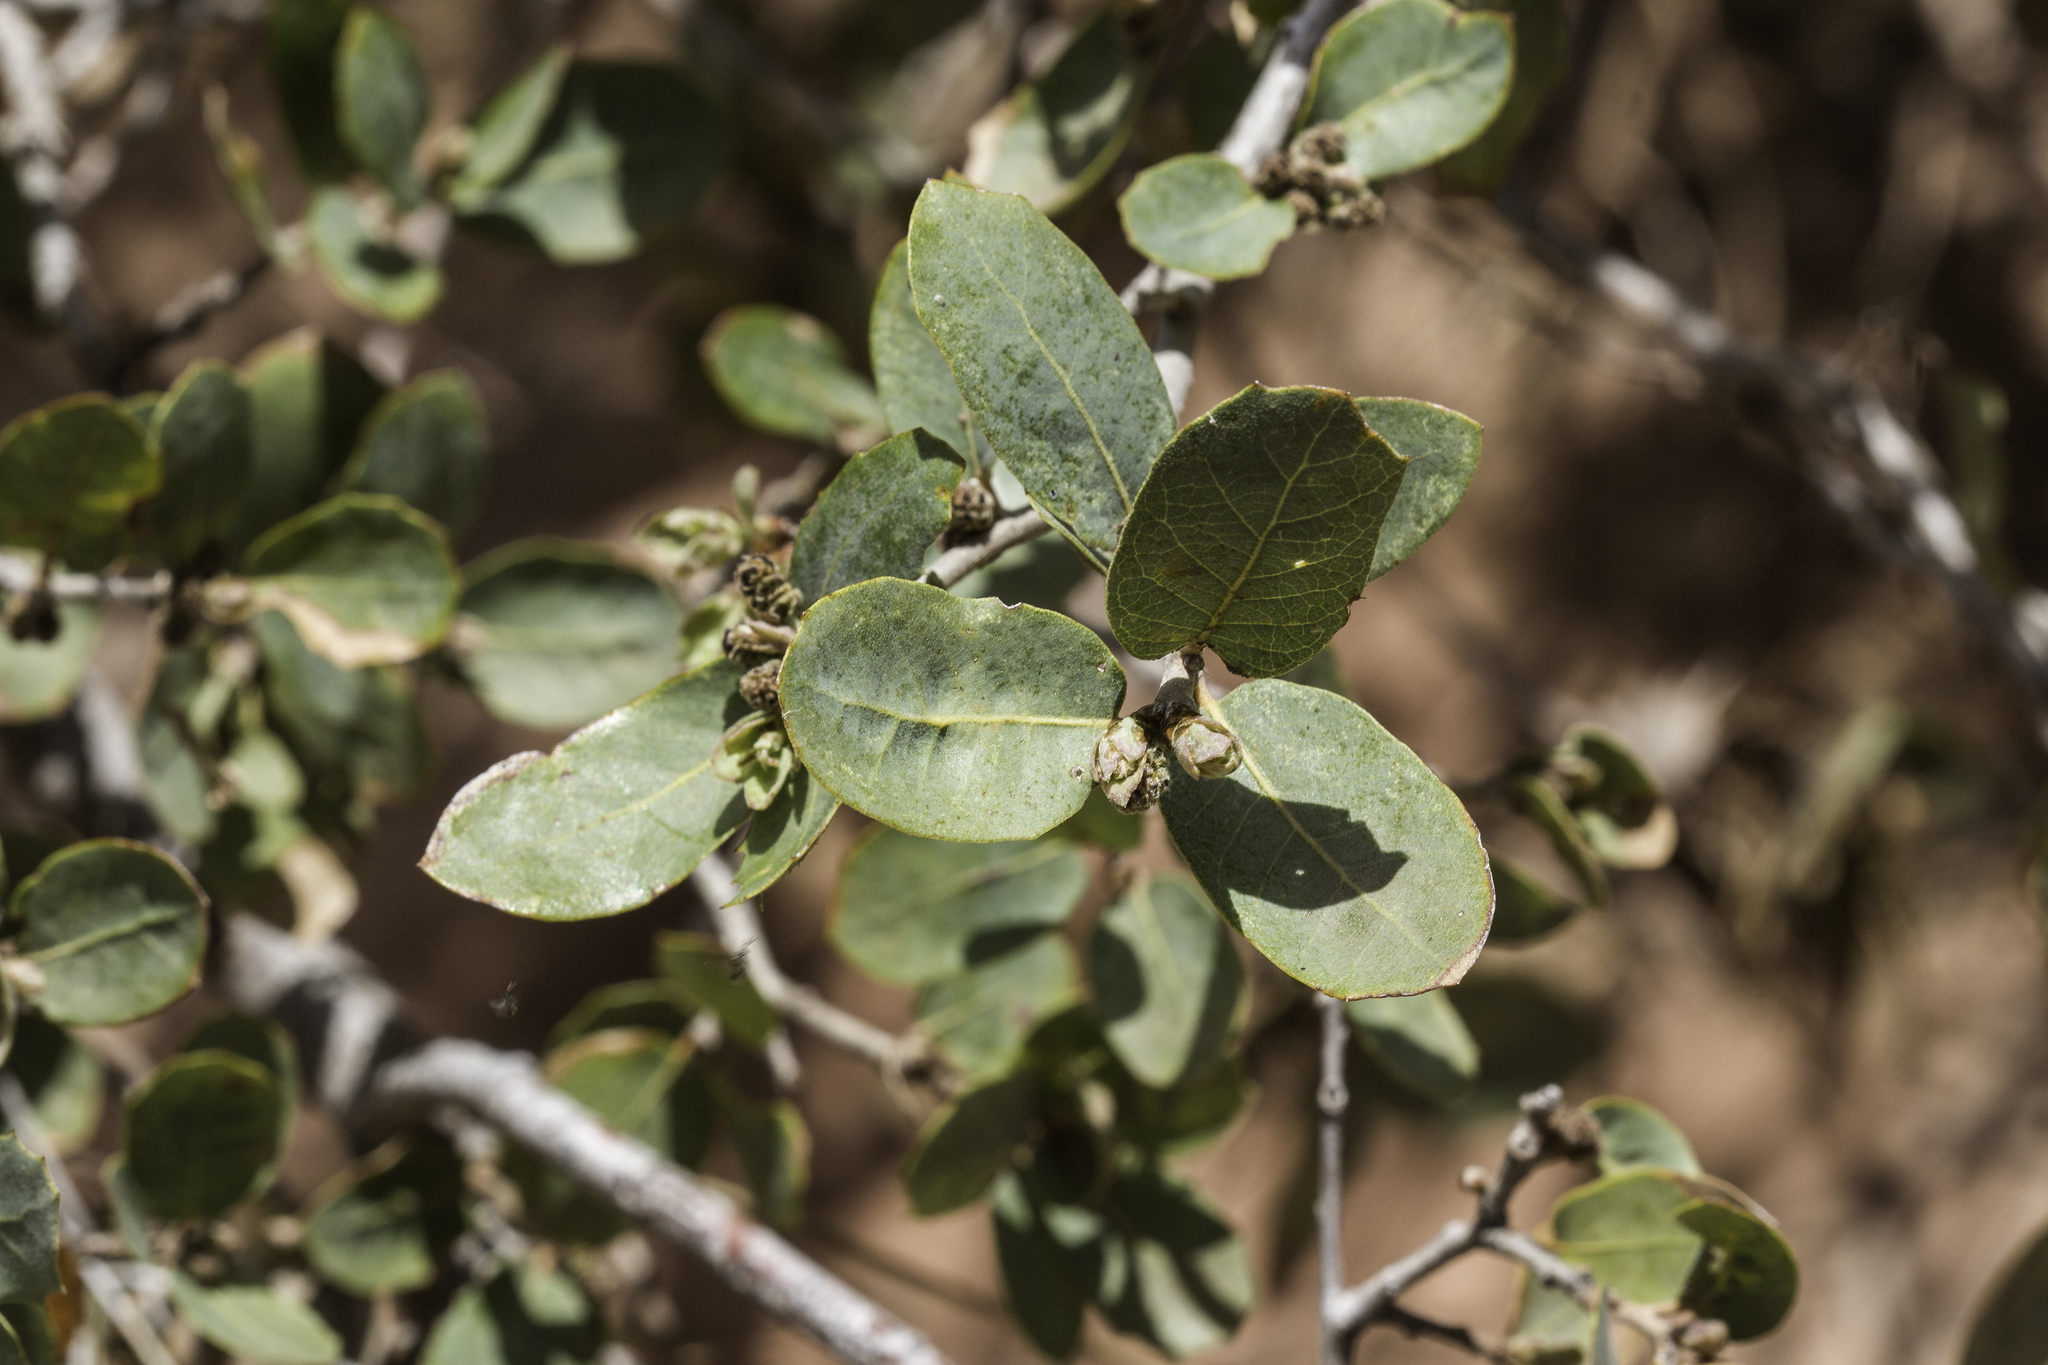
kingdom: Plantae
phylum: Tracheophyta
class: Magnoliopsida
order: Fagales
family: Fagaceae
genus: Quercus
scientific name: Quercus grisea
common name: Gray oak
